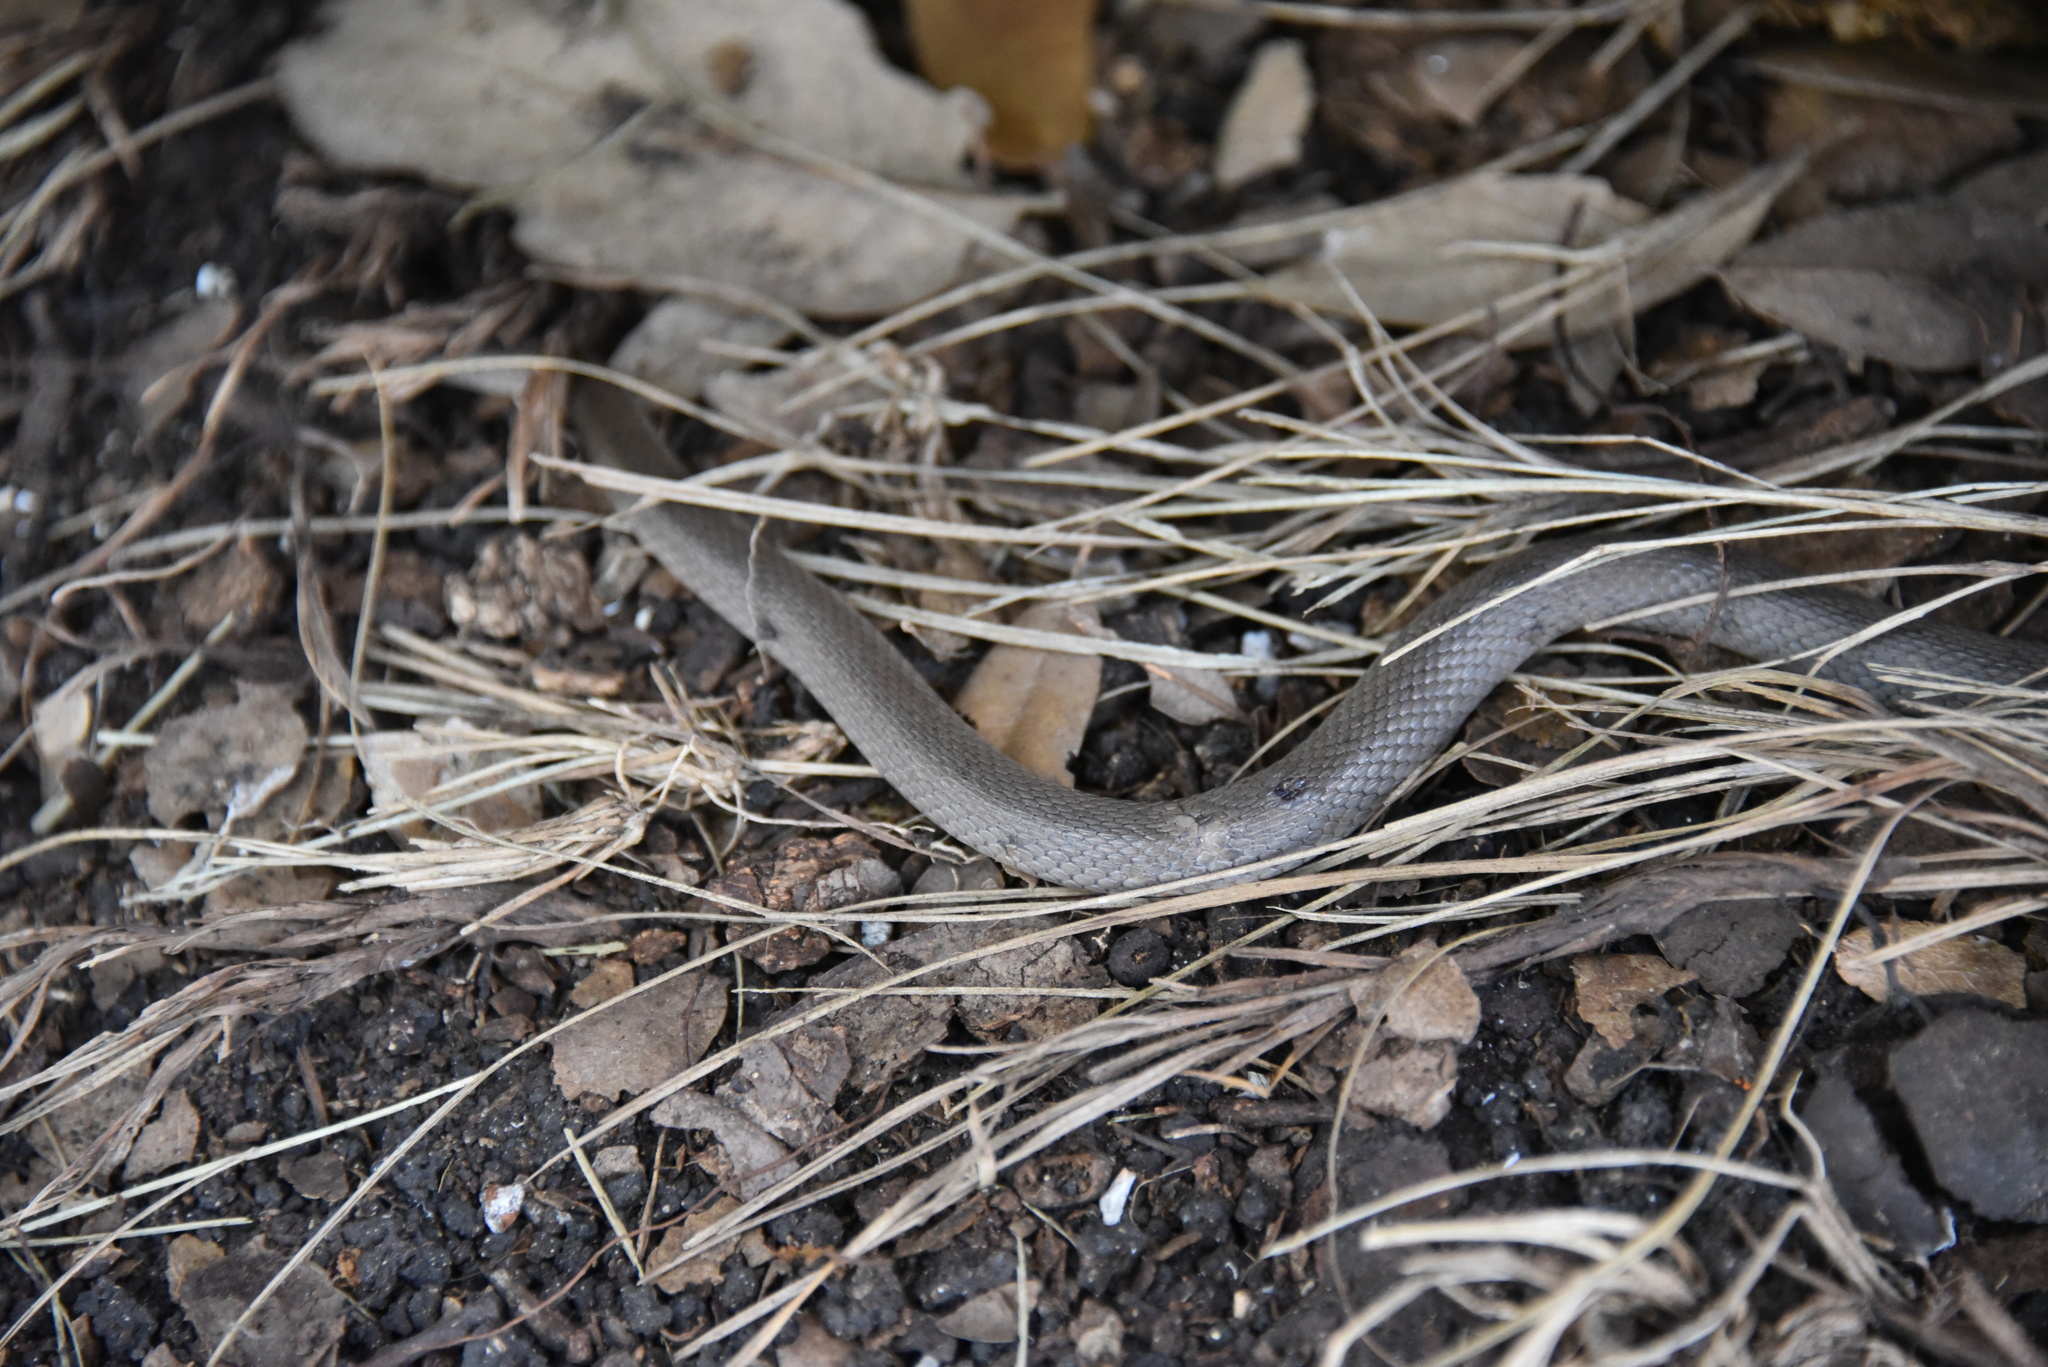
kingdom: Animalia
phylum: Chordata
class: Squamata
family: Colubridae
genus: Haldea
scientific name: Haldea striatula
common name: Rough earth snake
